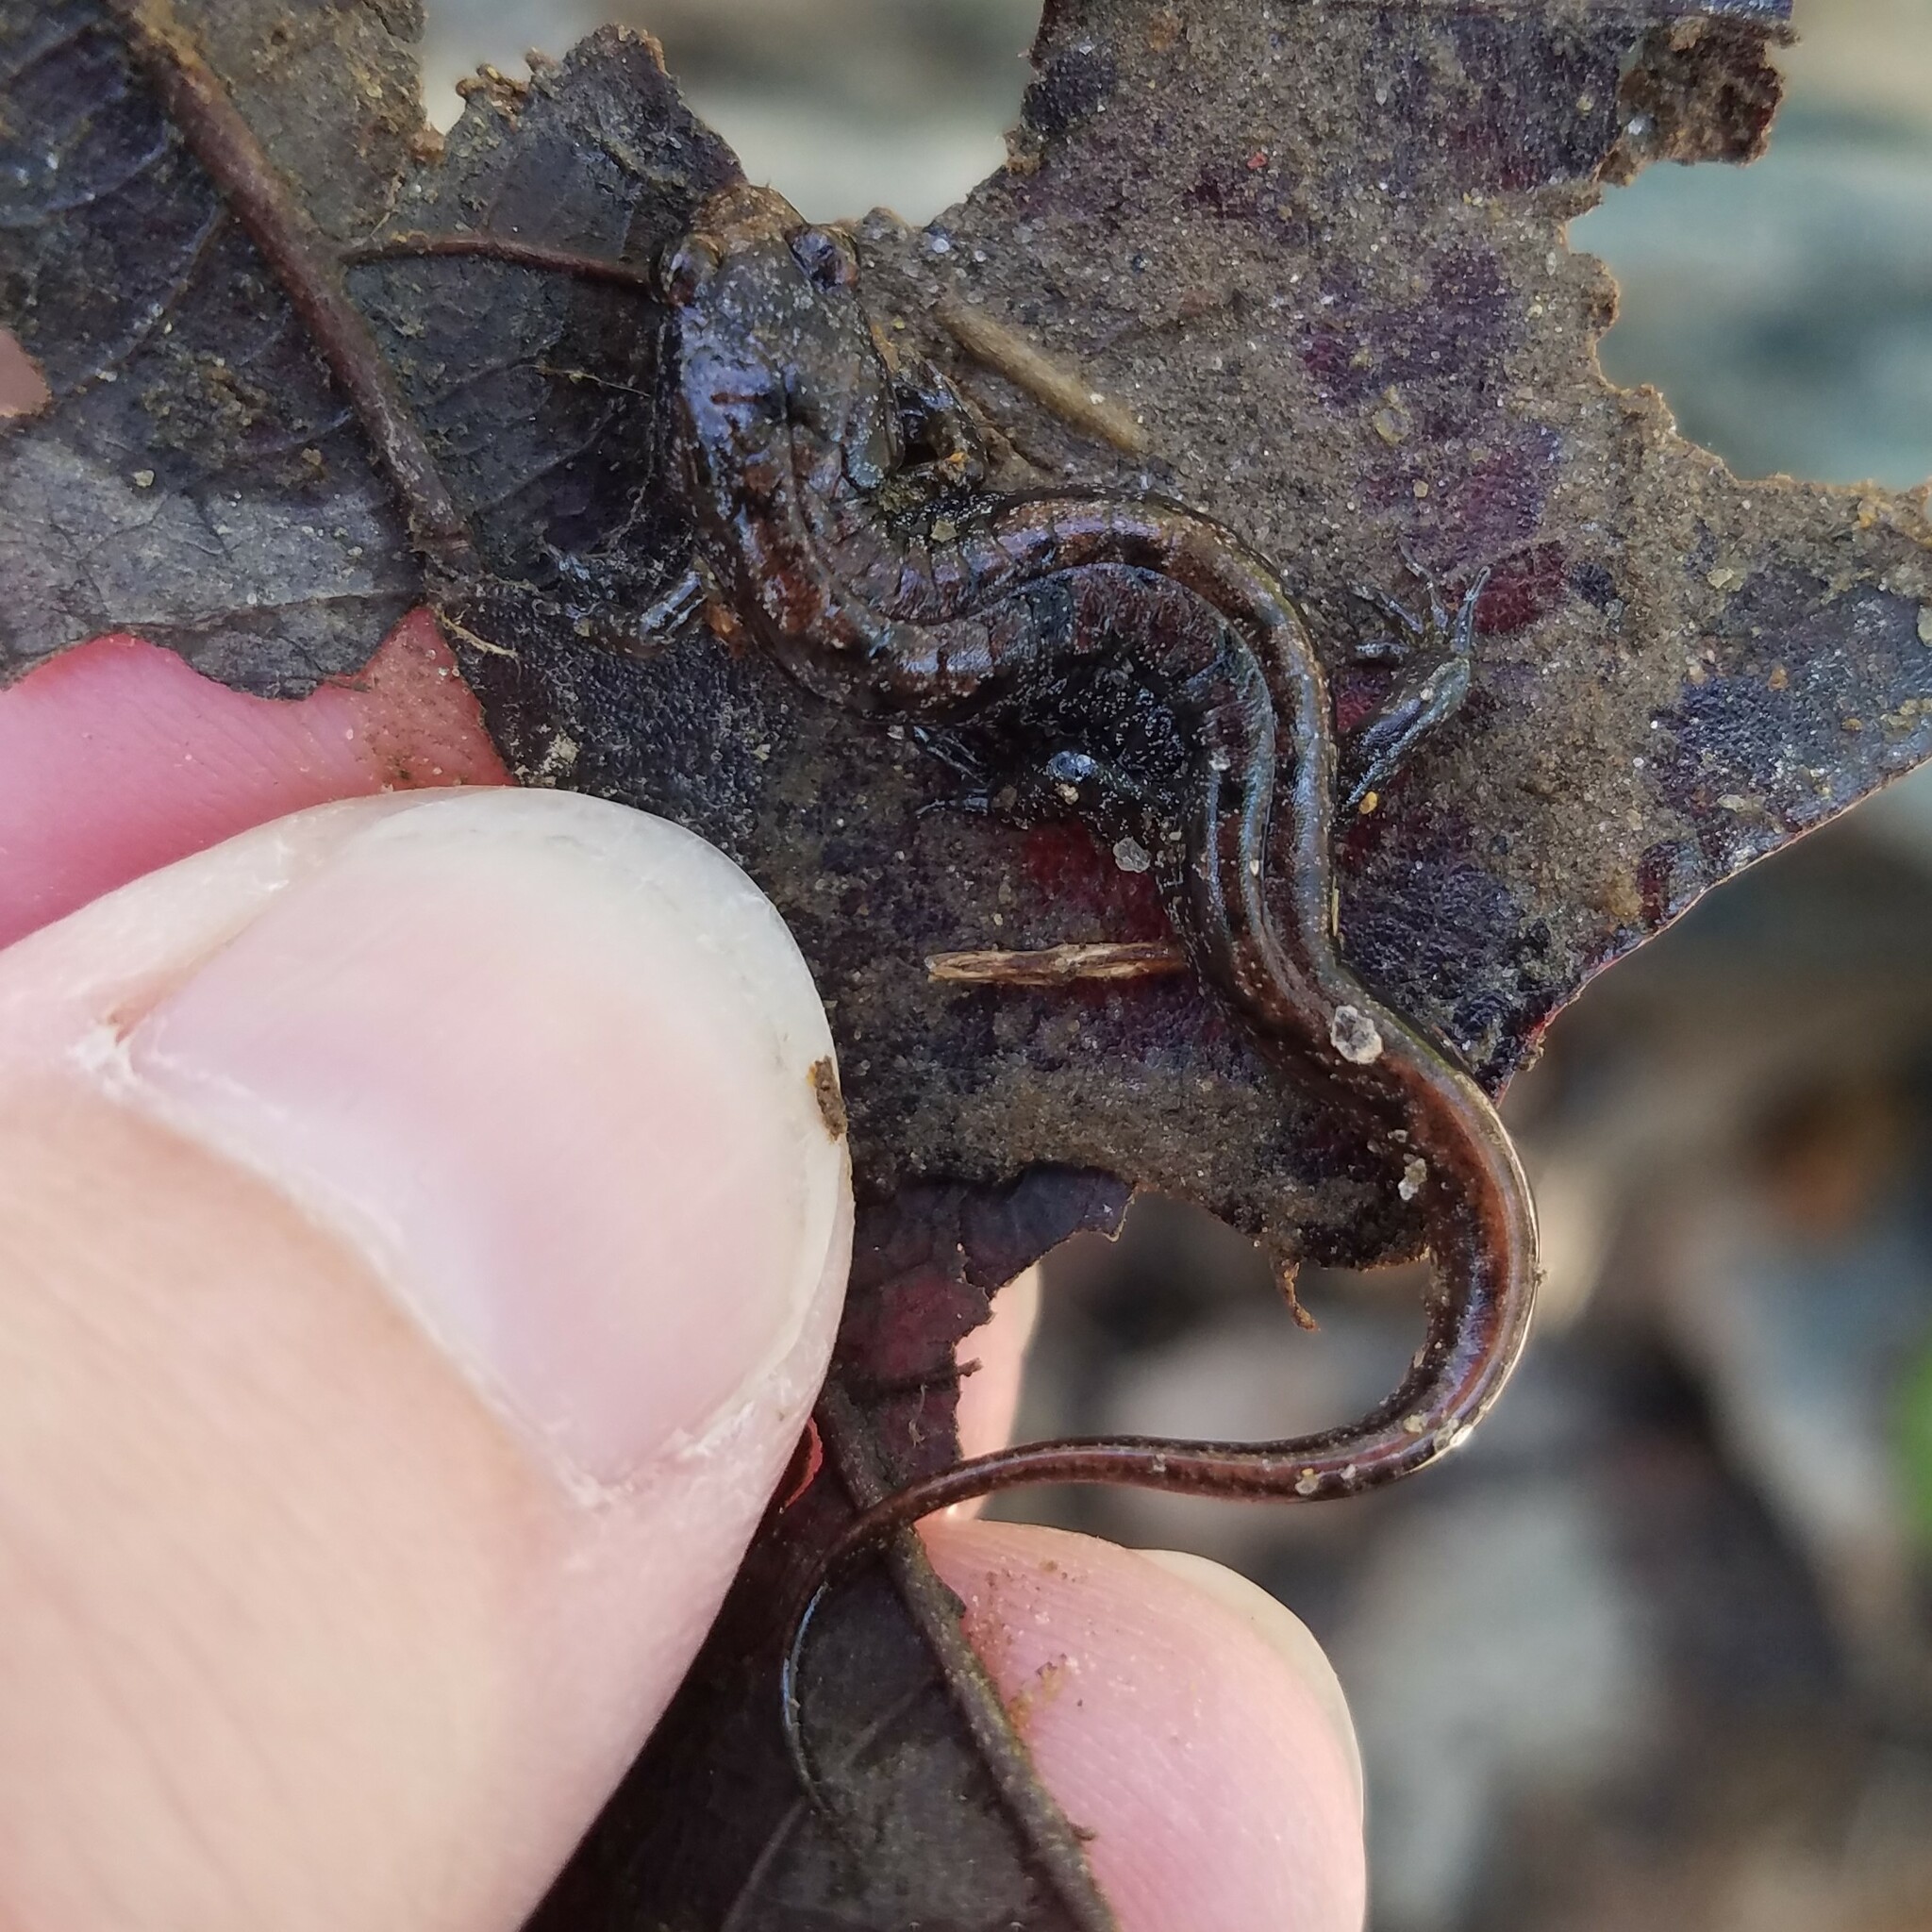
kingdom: Animalia
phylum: Chordata
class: Amphibia
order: Caudata
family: Plethodontidae
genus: Desmognathus
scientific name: Desmognathus ocoee
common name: Ocoee salamander
